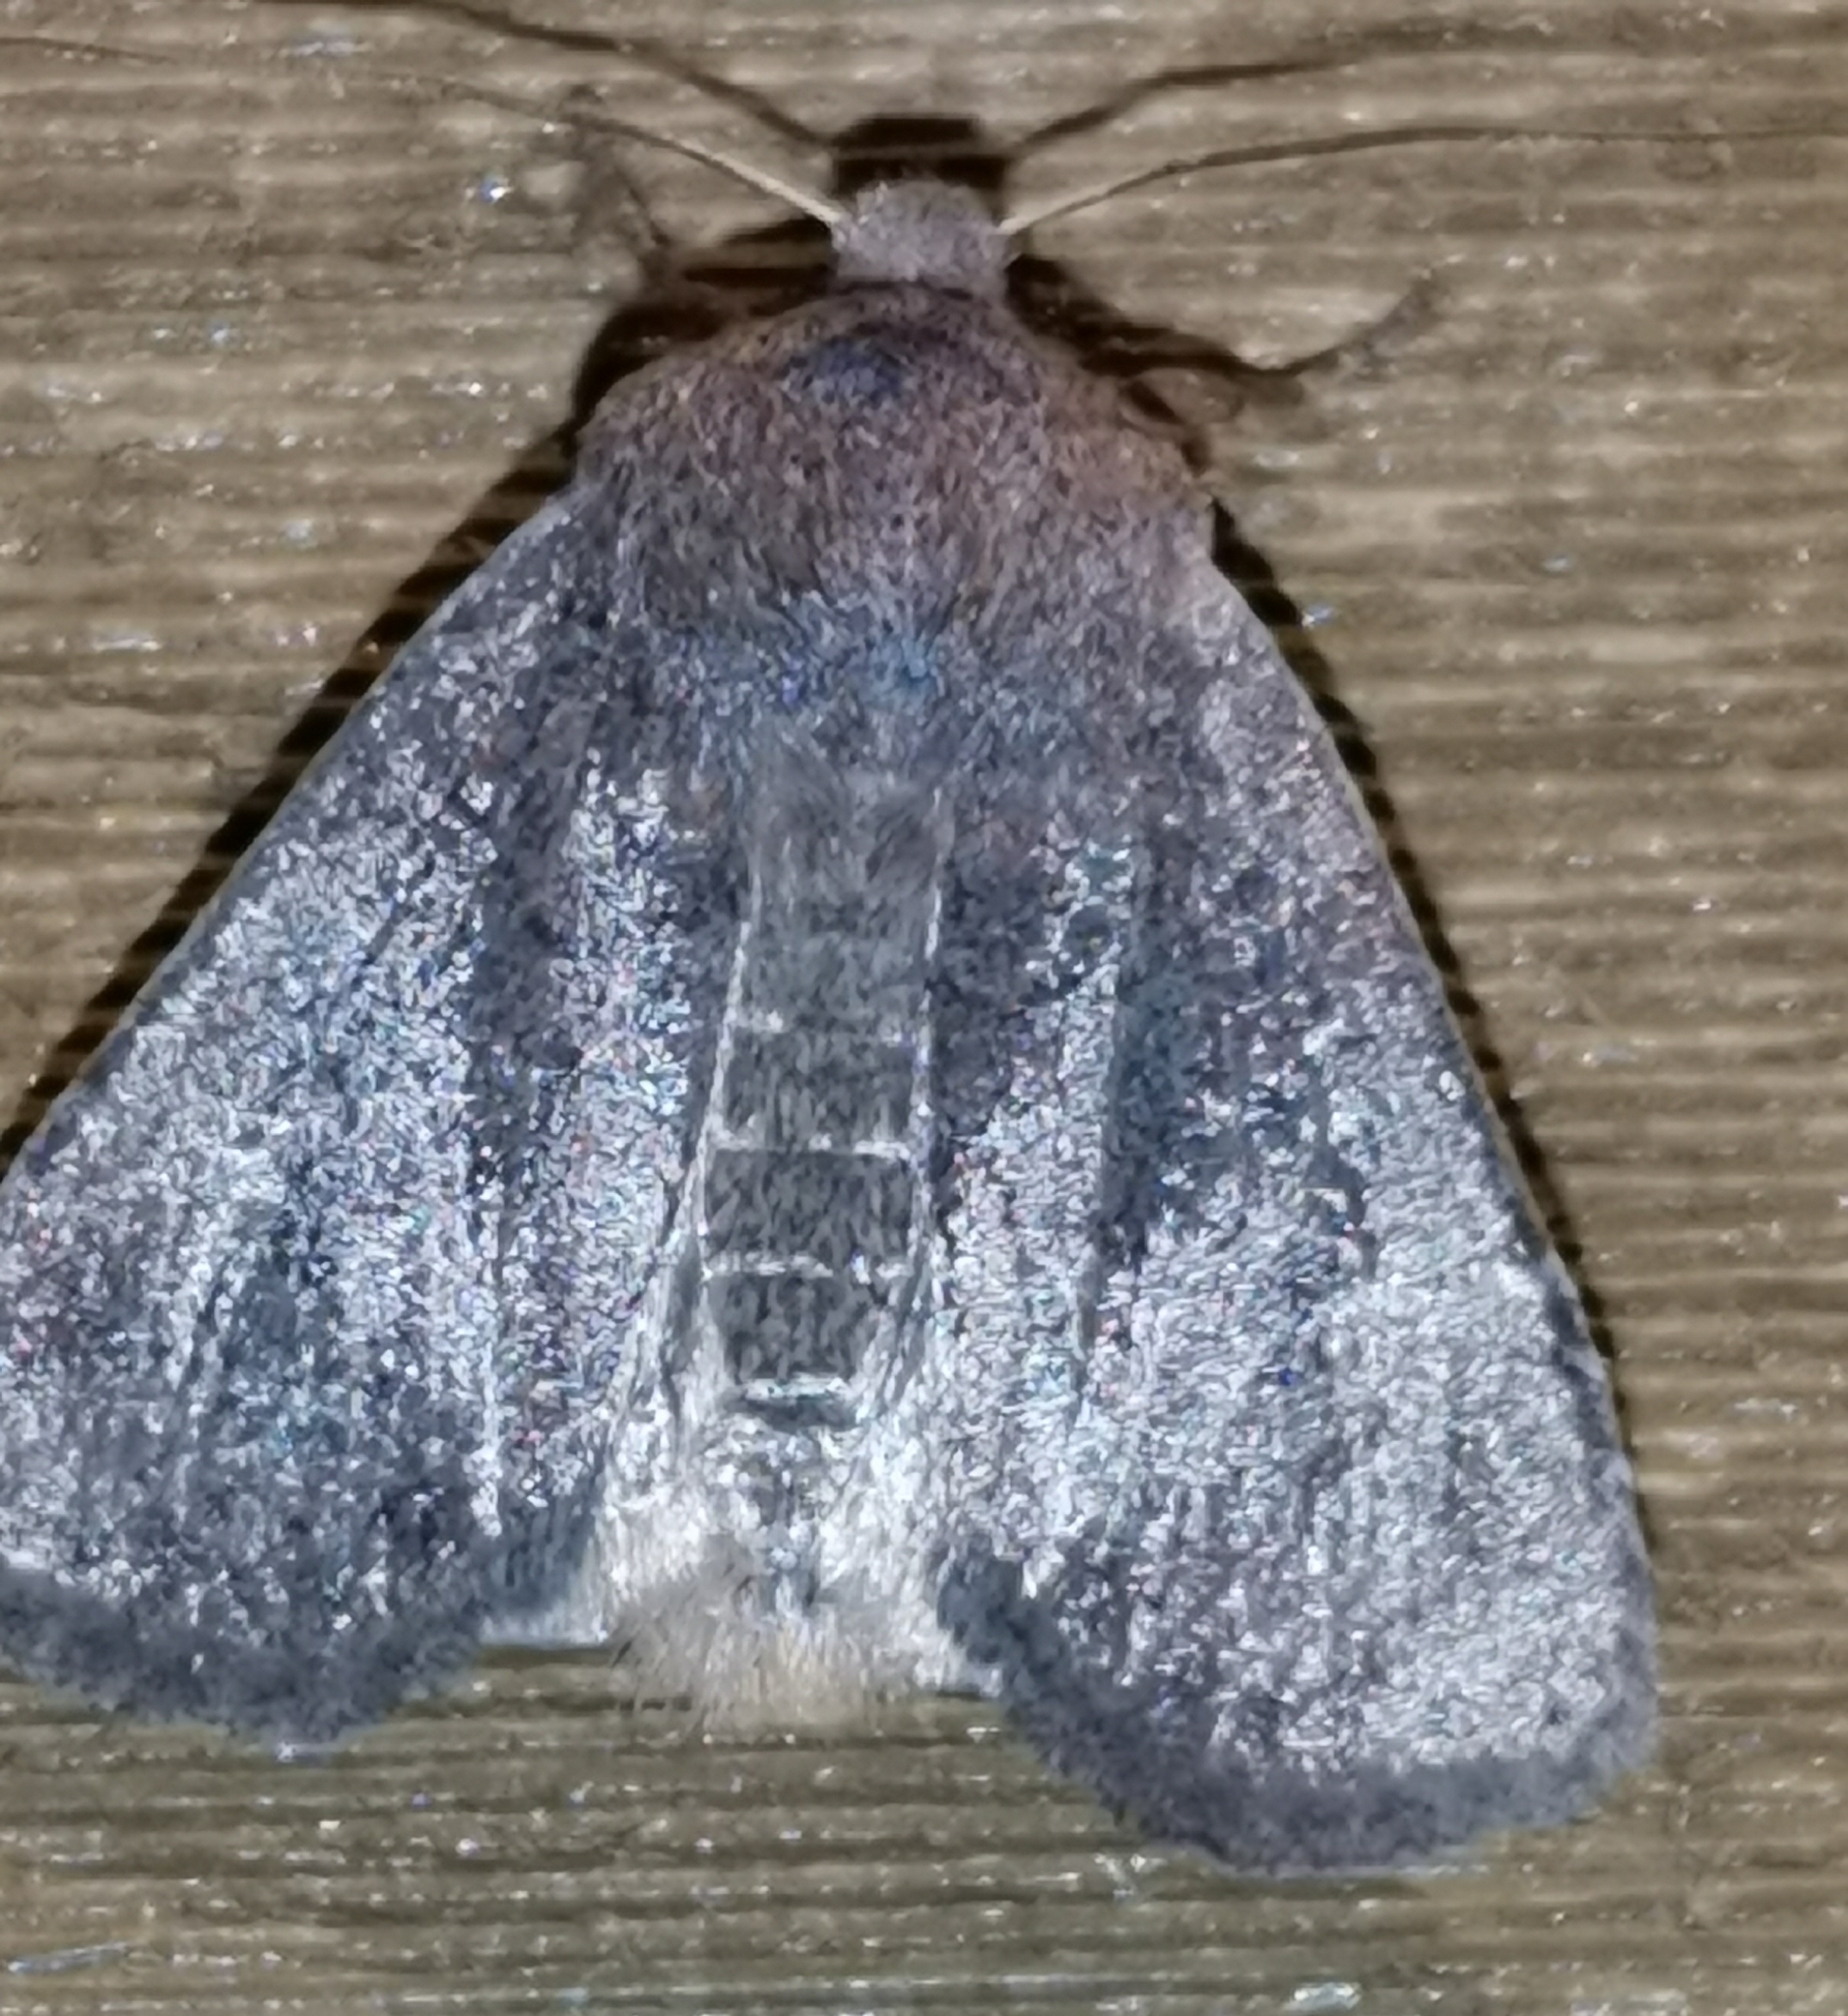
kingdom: Animalia
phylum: Arthropoda
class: Insecta
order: Lepidoptera
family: Noctuidae
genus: Conistra
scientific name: Conistra vaccinii
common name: Chestnut
